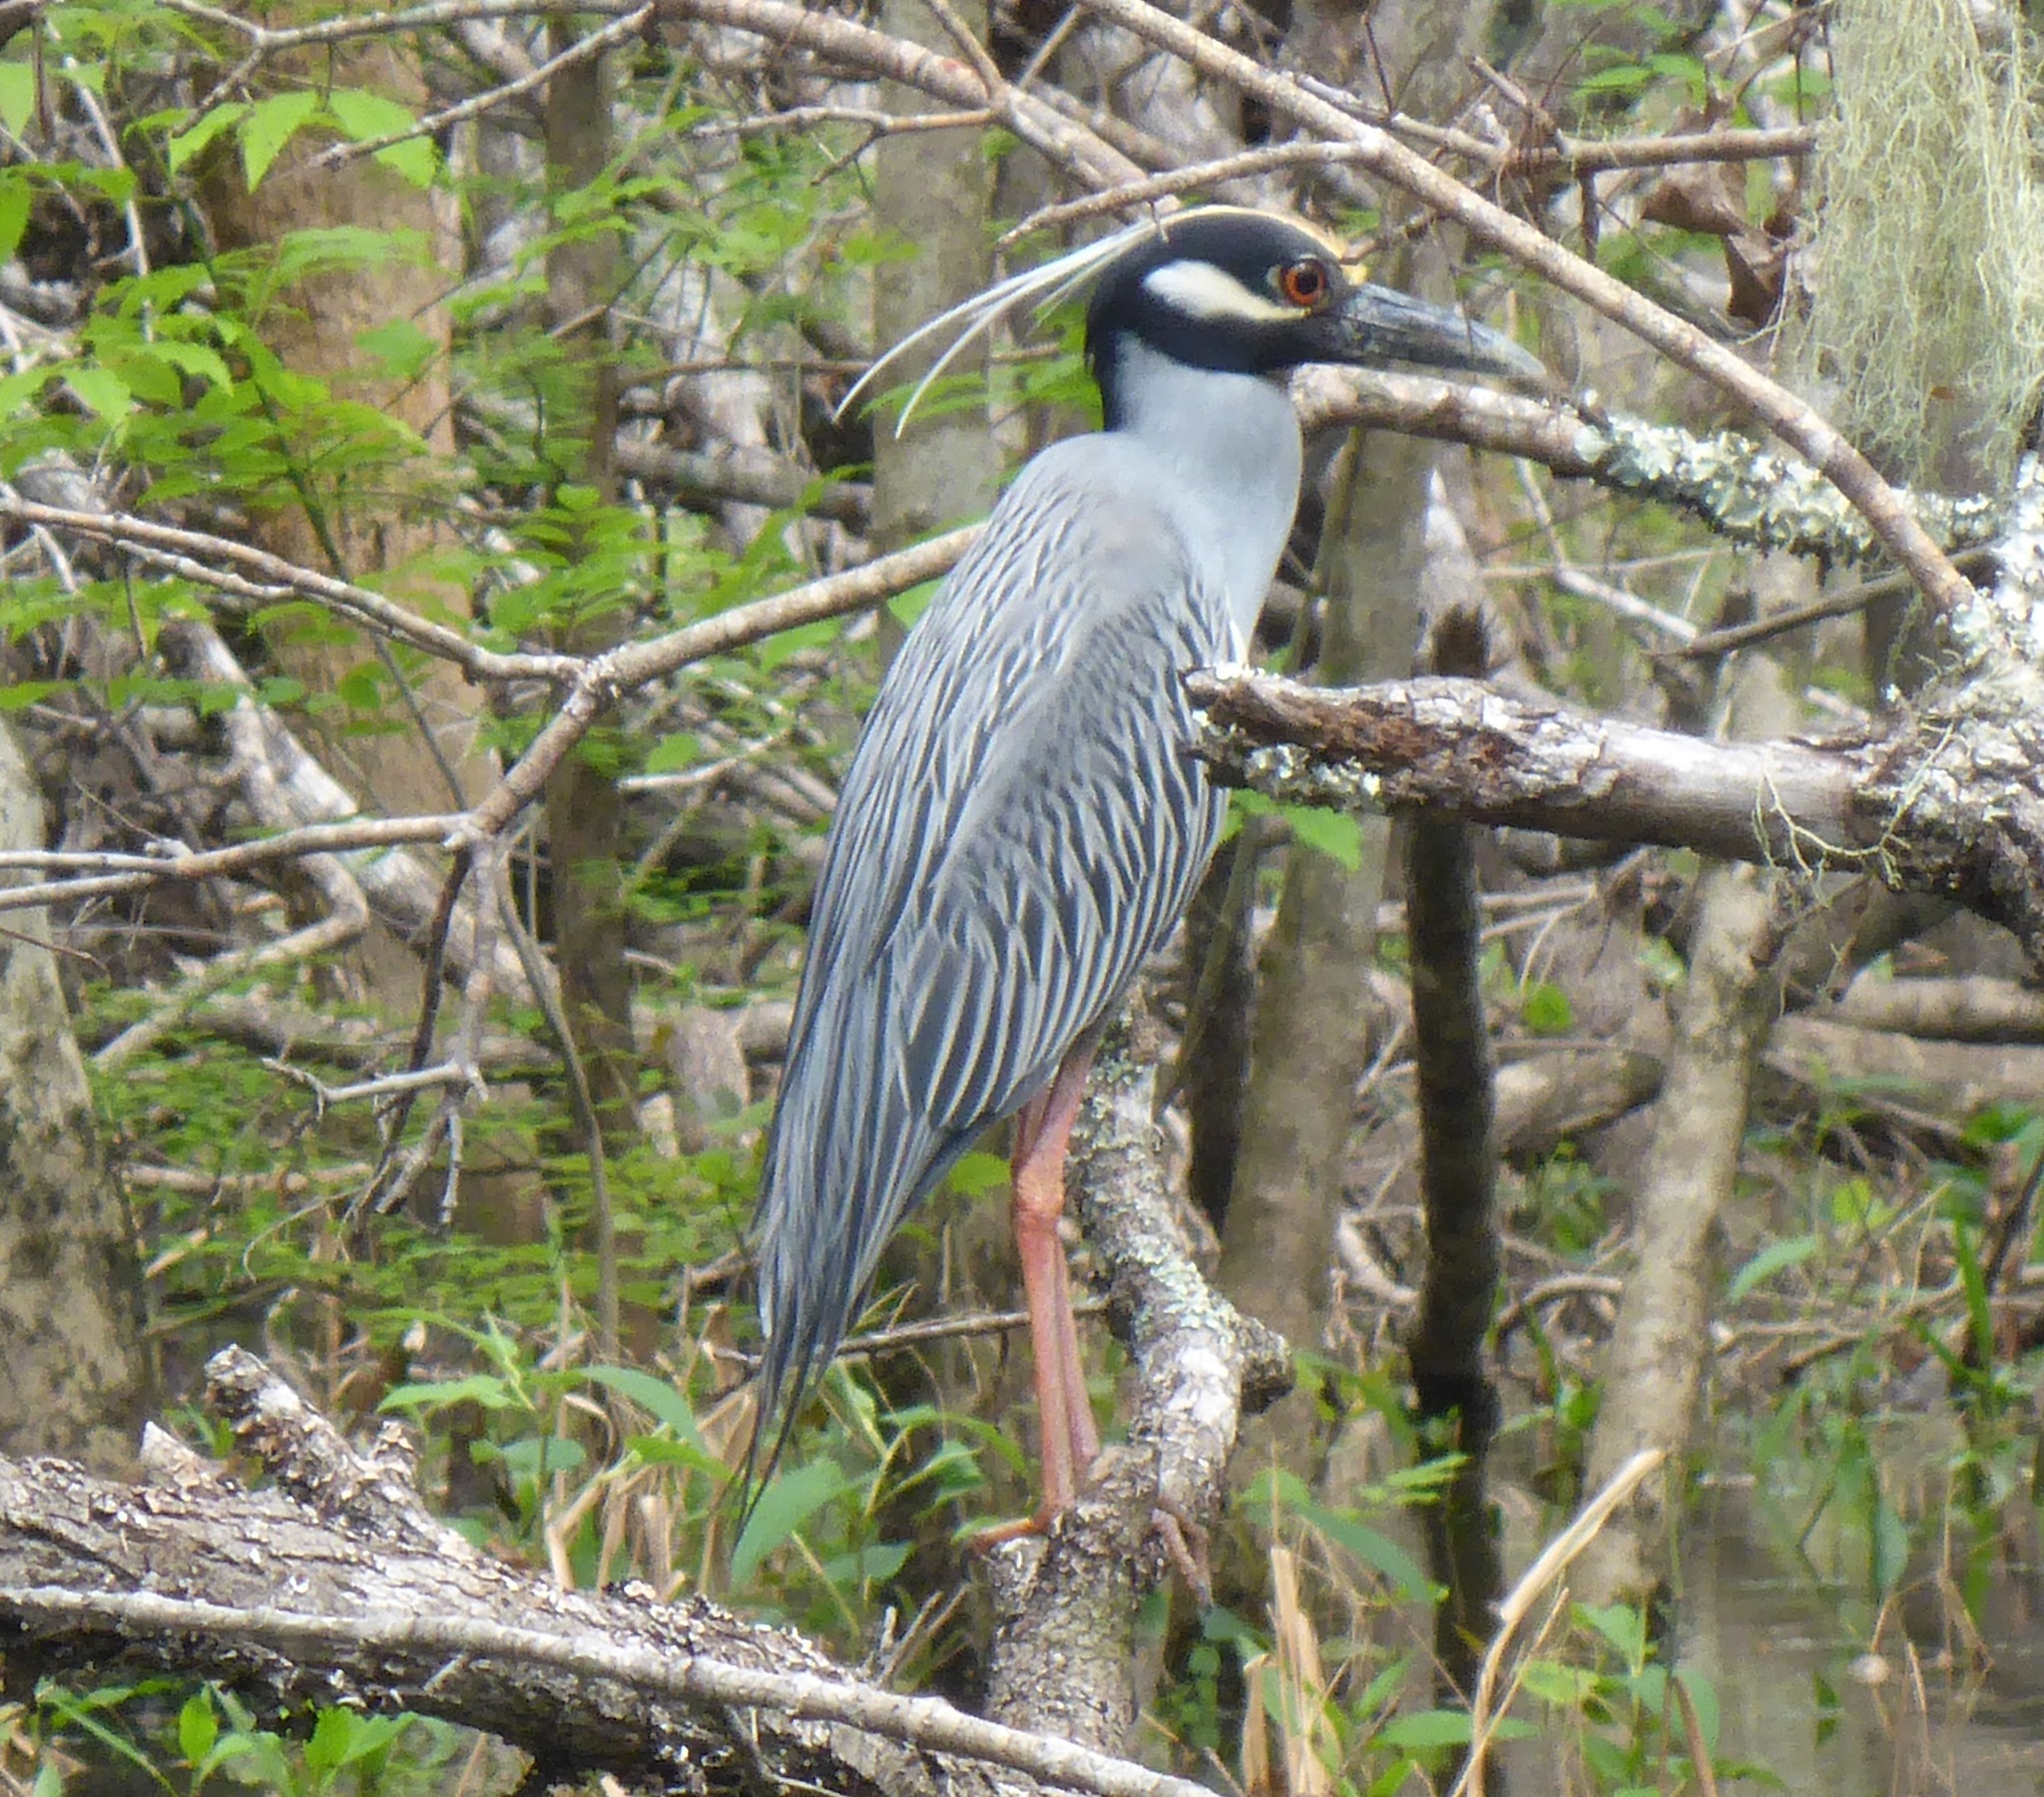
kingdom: Animalia
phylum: Chordata
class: Aves
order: Pelecaniformes
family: Ardeidae
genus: Nyctanassa
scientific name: Nyctanassa violacea
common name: Yellow-crowned night heron
